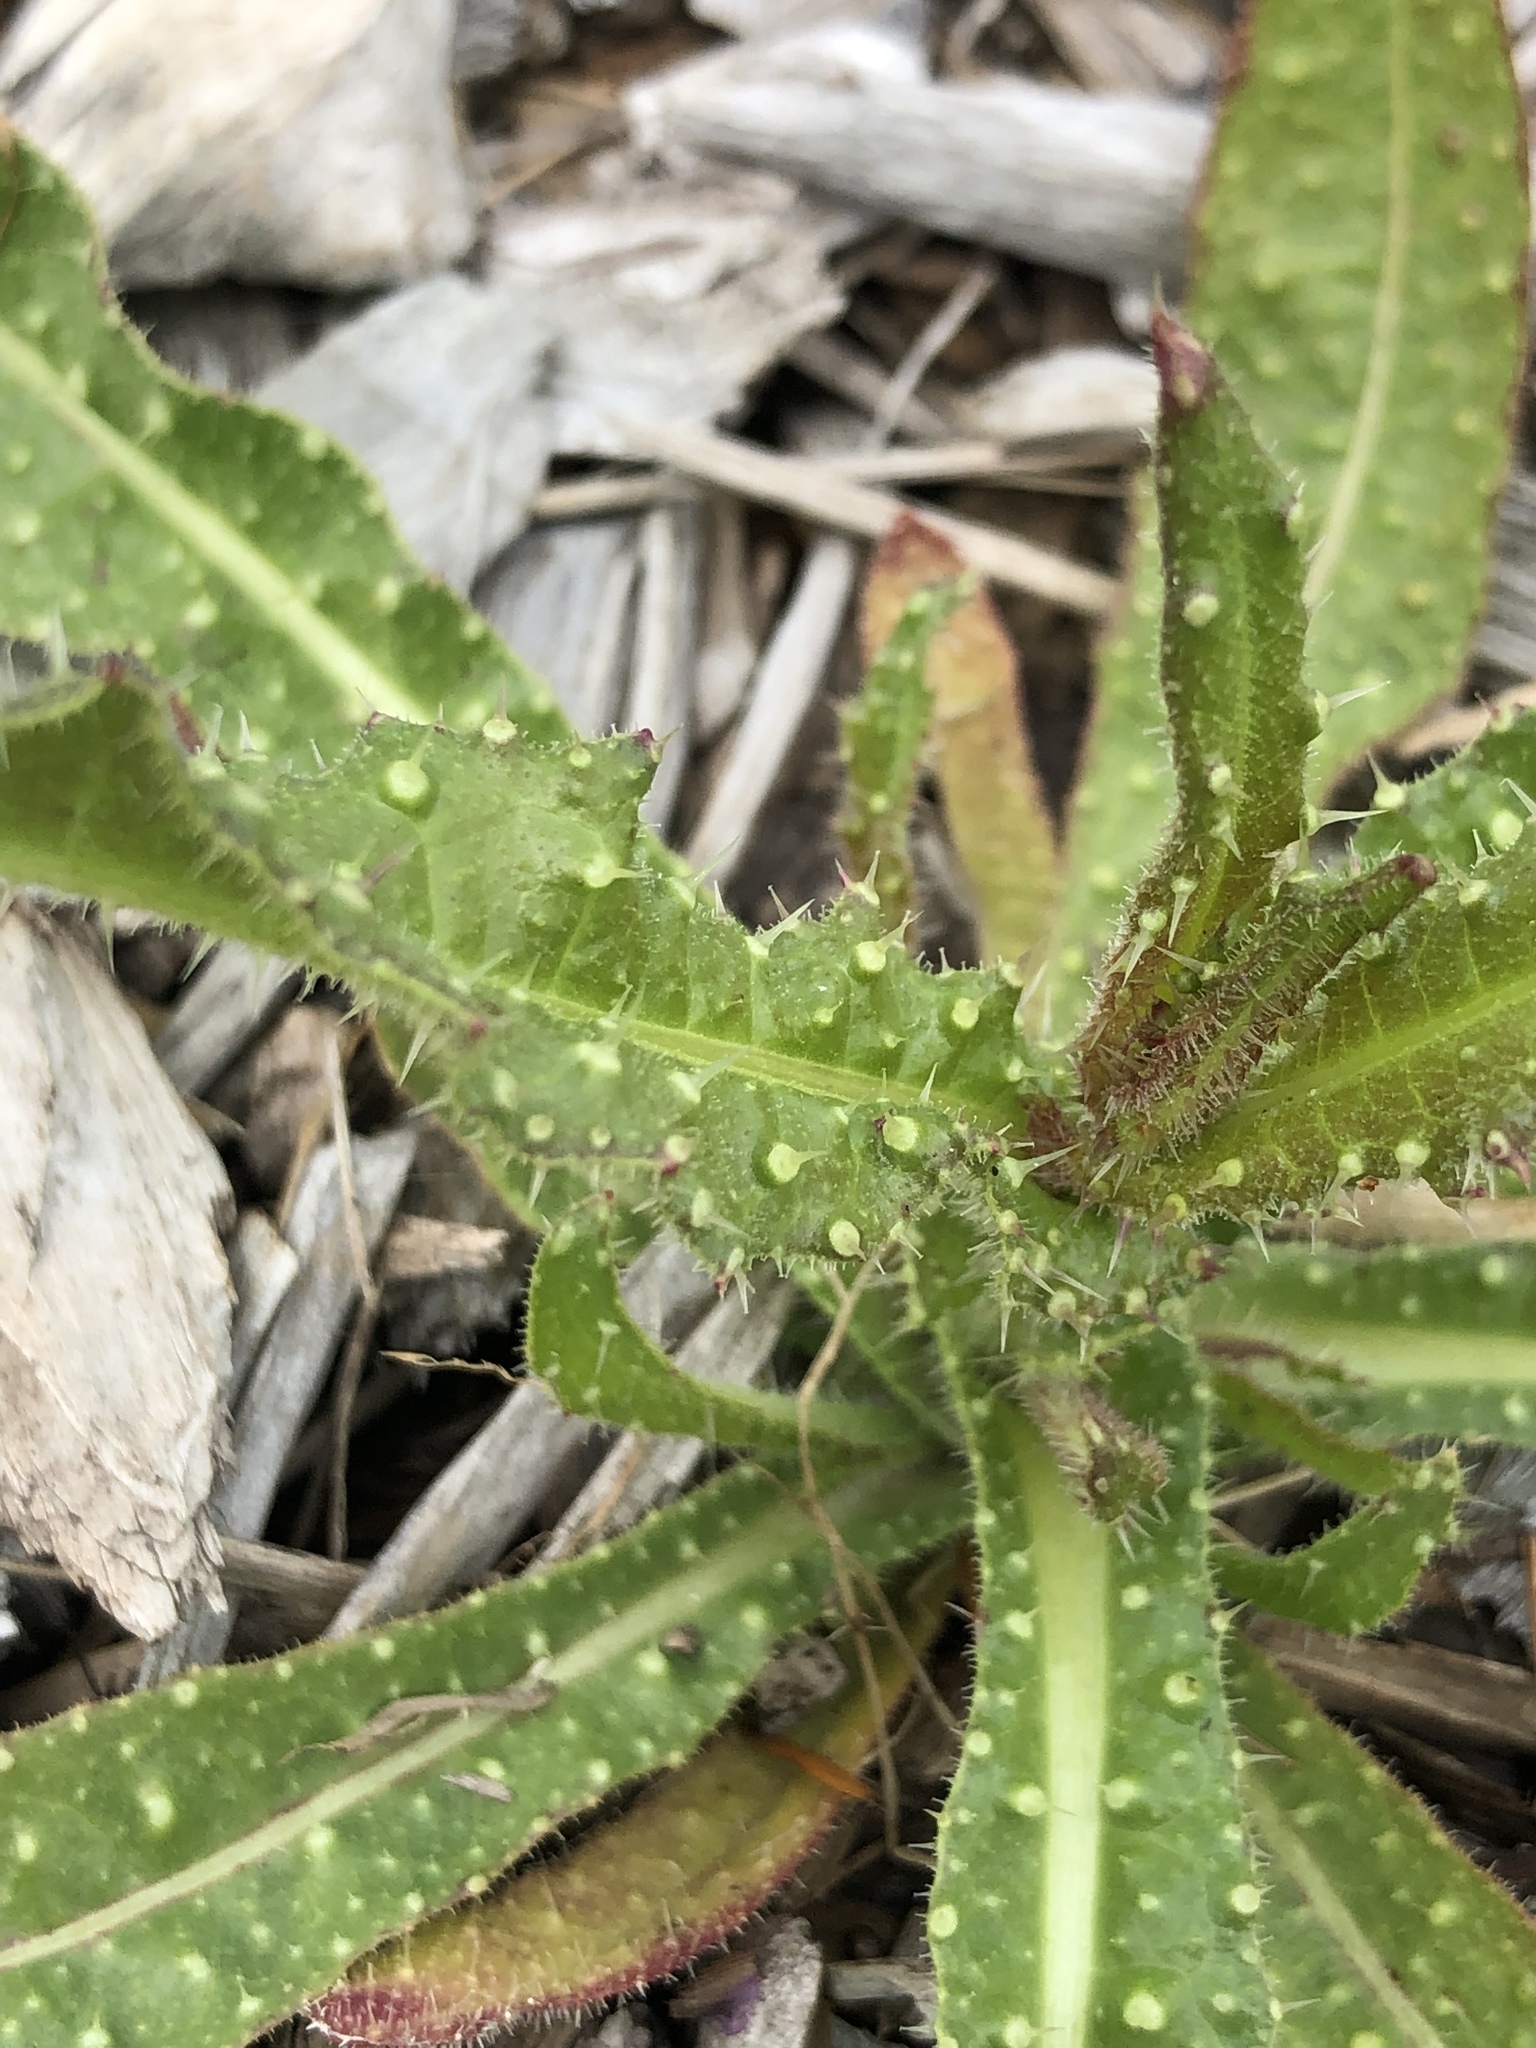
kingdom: Plantae
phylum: Tracheophyta
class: Magnoliopsida
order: Asterales
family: Asteraceae
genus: Helminthotheca
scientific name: Helminthotheca echioides
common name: Ox-tongue
